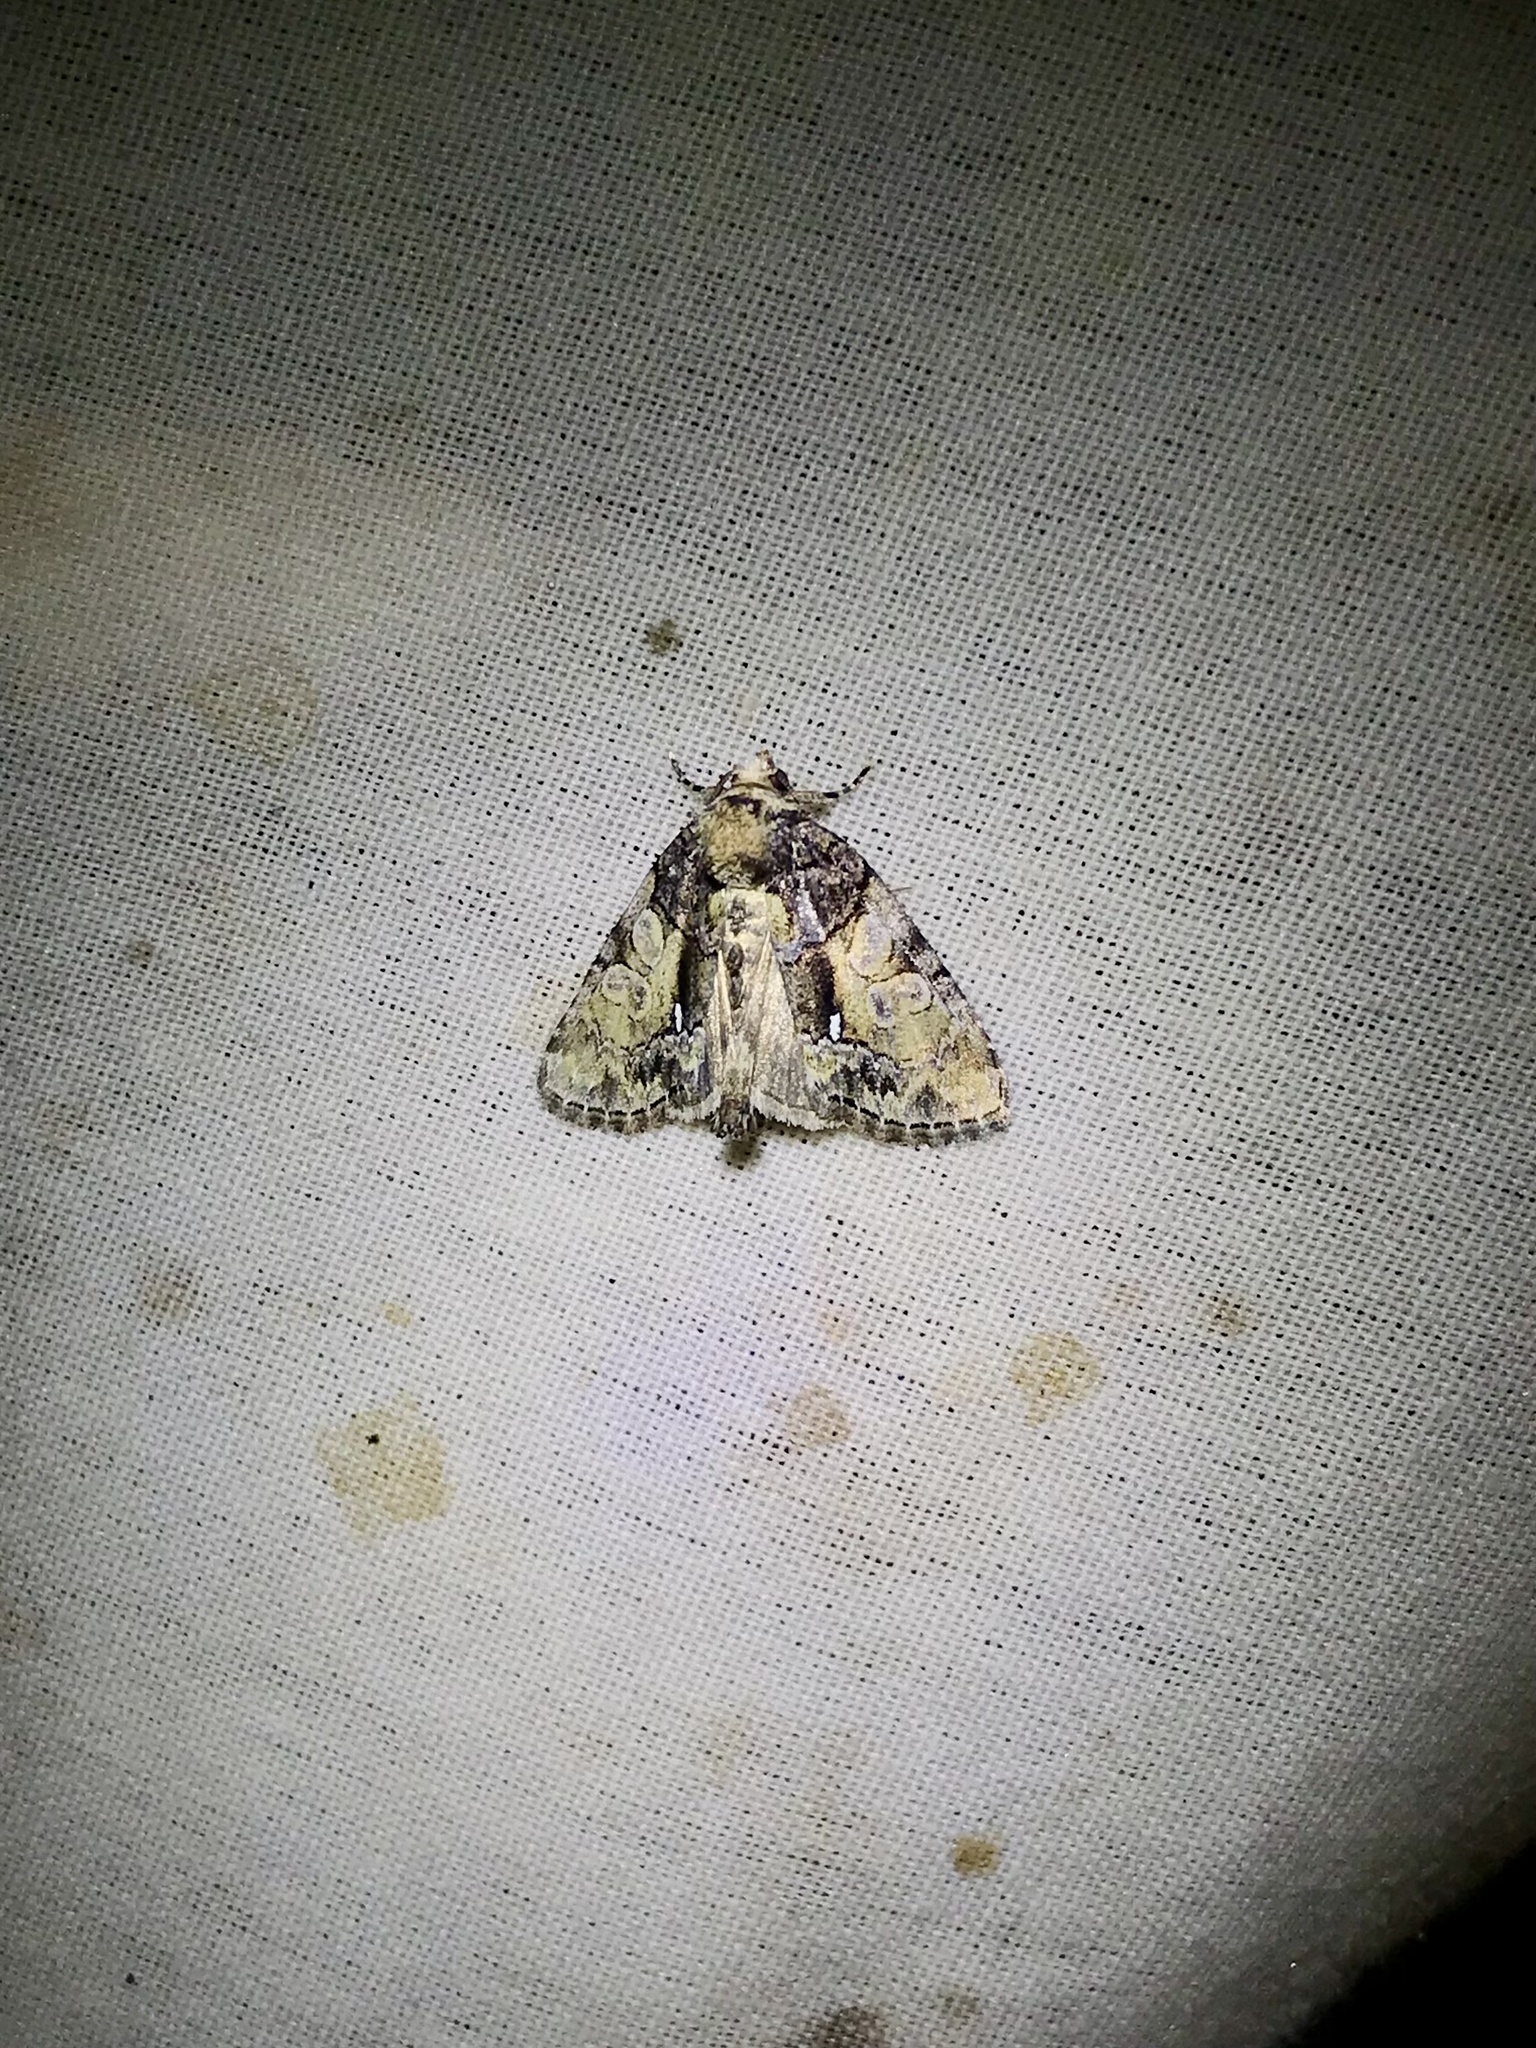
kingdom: Animalia
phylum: Arthropoda
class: Insecta
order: Lepidoptera
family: Noctuidae
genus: Chytonix
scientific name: Chytonix palliatricula
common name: Cloaked marvel
